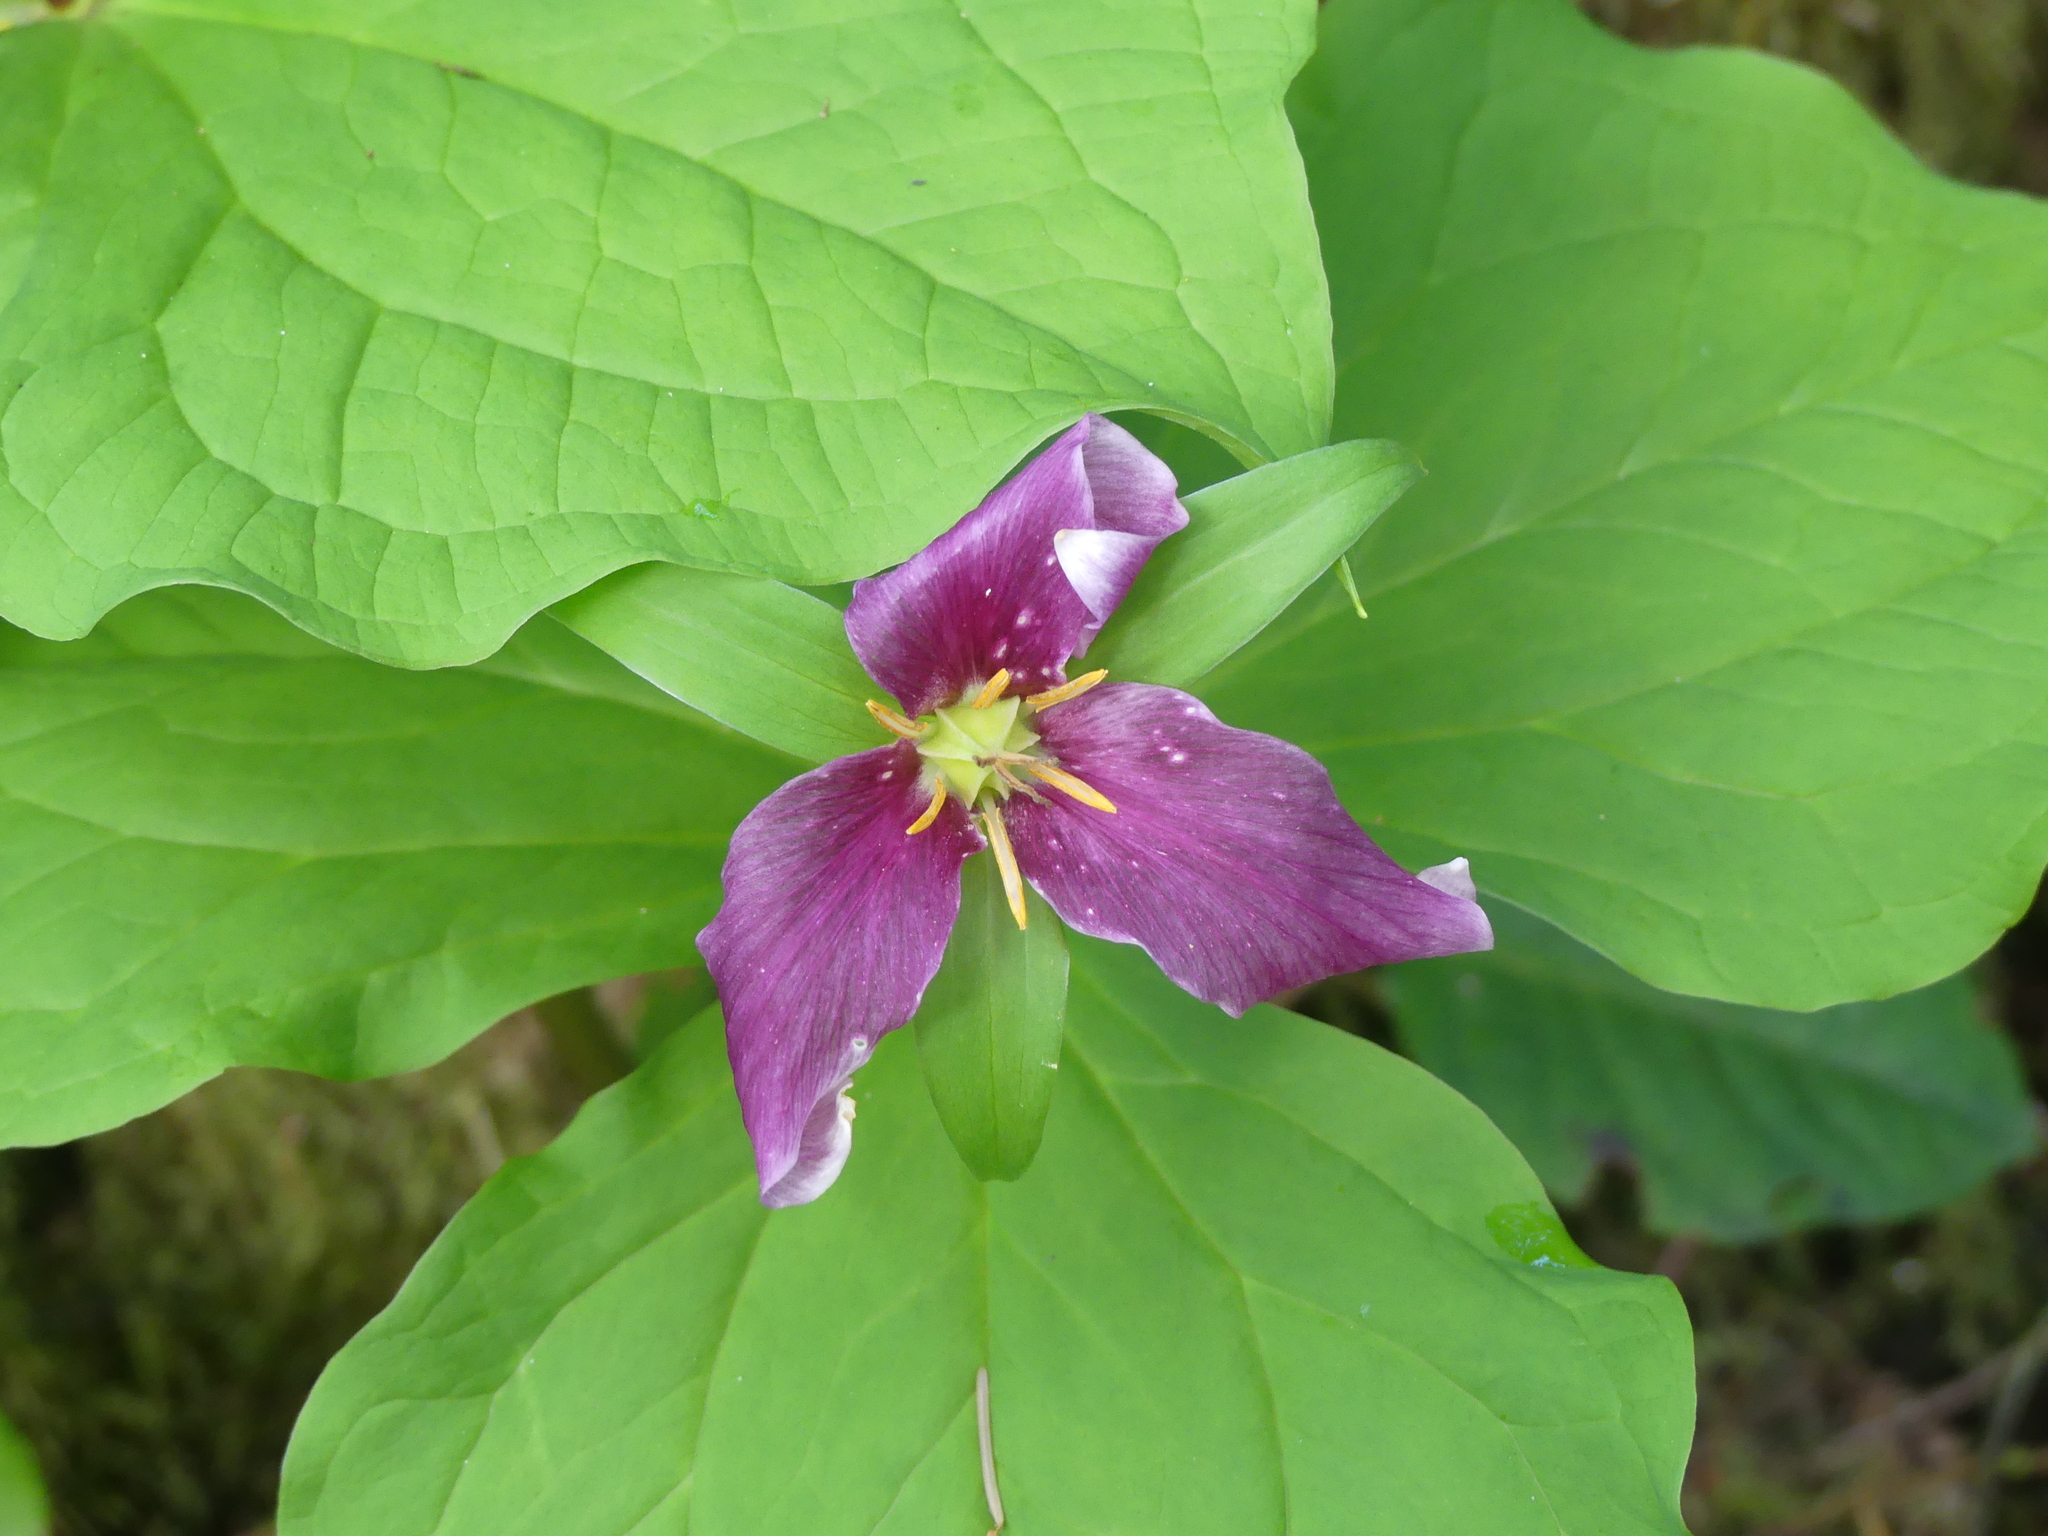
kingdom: Plantae
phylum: Tracheophyta
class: Liliopsida
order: Liliales
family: Melanthiaceae
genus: Trillium
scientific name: Trillium ovatum
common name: Pacific trillium
